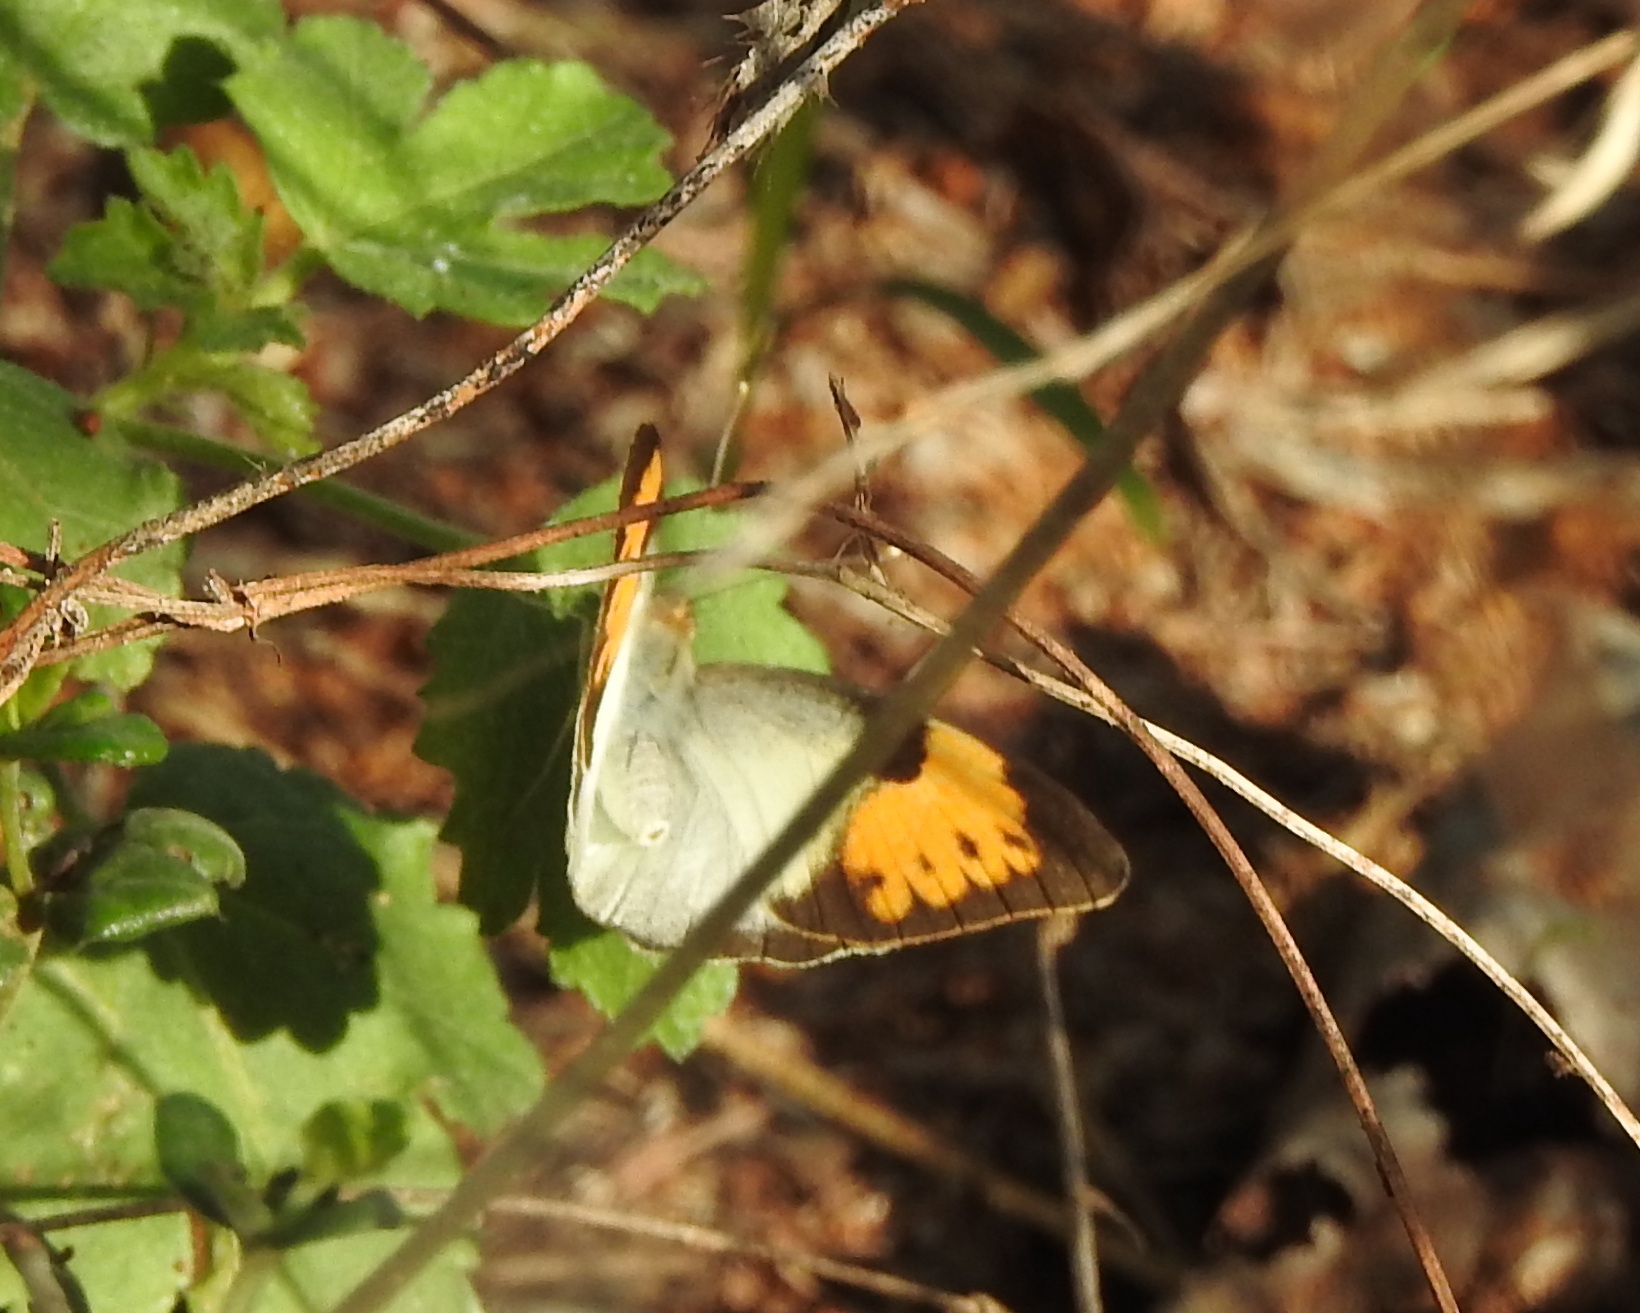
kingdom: Animalia
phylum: Arthropoda
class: Insecta
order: Lepidoptera
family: Pieridae
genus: Ixias
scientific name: Ixias marianne
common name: White orange tip
